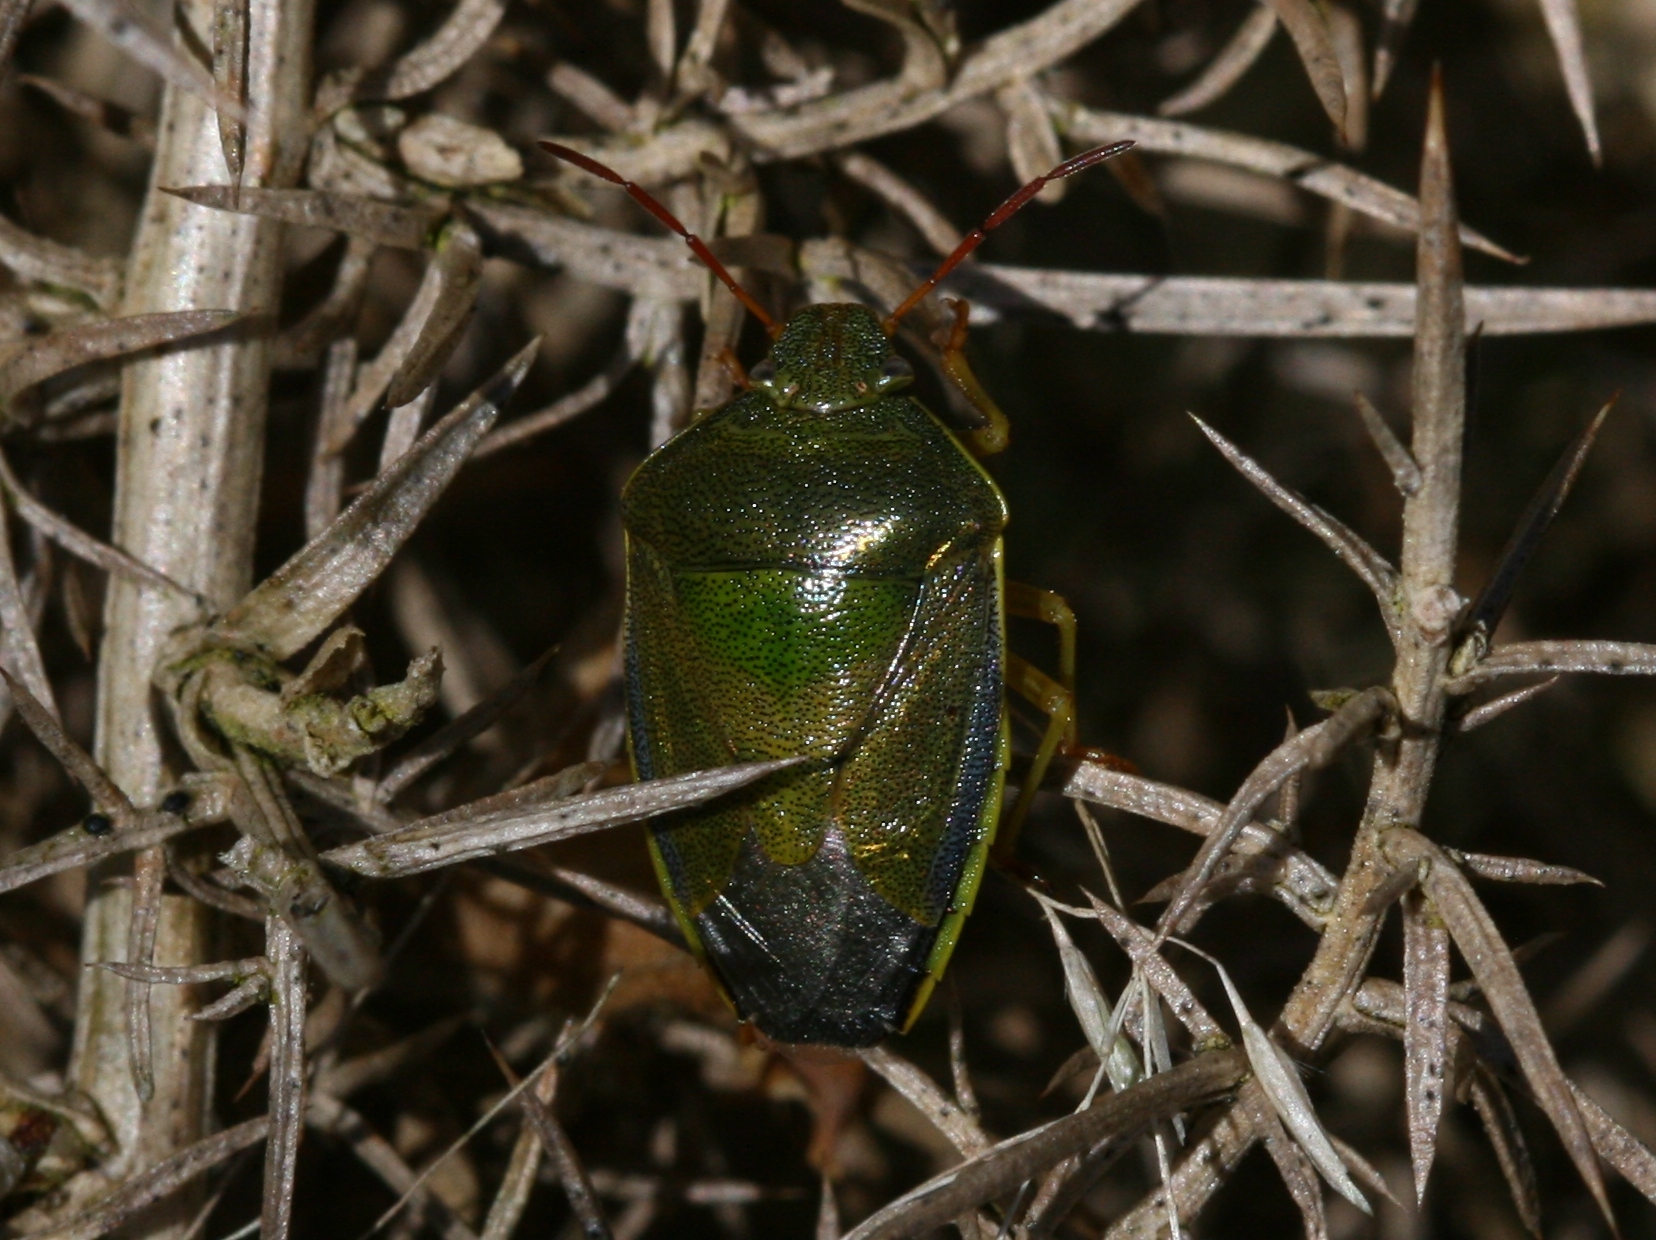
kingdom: Animalia
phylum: Arthropoda
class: Insecta
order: Hemiptera
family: Pentatomidae
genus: Piezodorus
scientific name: Piezodorus lituratus
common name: Stink bug
